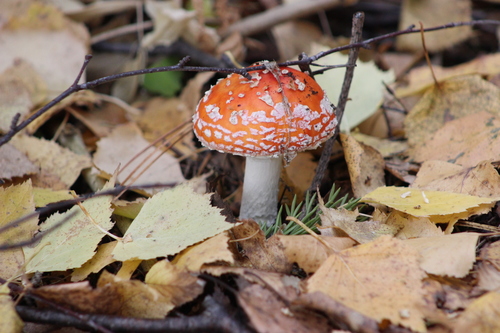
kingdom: Fungi
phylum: Basidiomycota
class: Agaricomycetes
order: Agaricales
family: Amanitaceae
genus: Amanita
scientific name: Amanita muscaria
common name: Fly agaric
